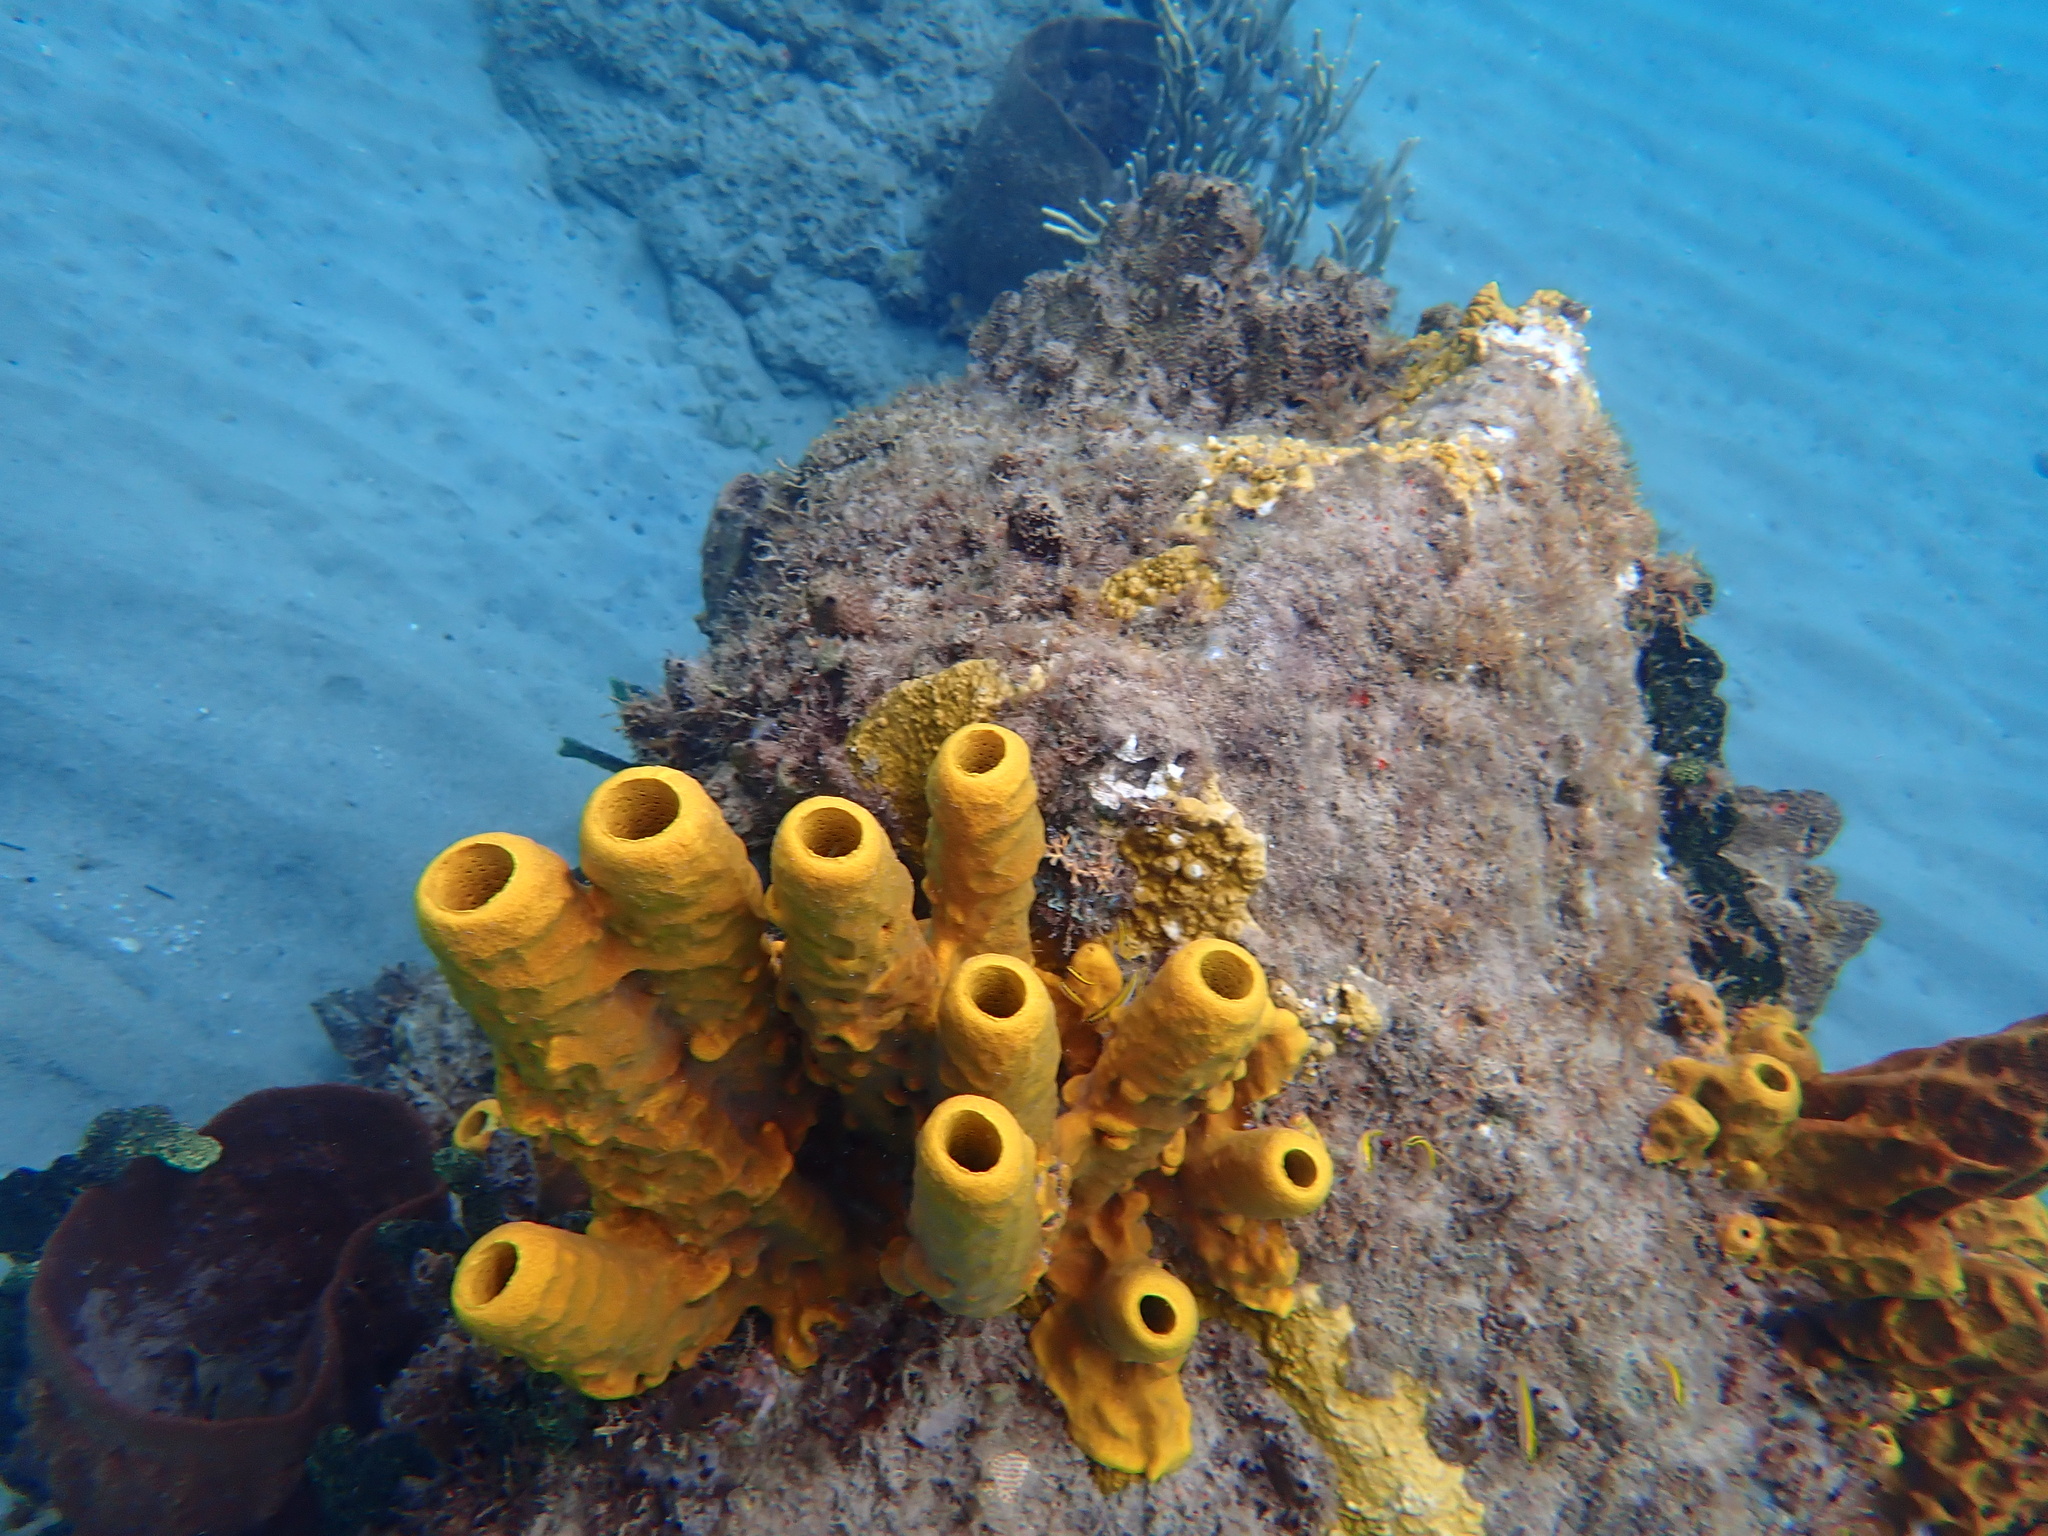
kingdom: Animalia
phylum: Porifera
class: Demospongiae
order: Verongiida
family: Aplysinidae
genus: Aplysina
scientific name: Aplysina fistularis
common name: Candle sponge
